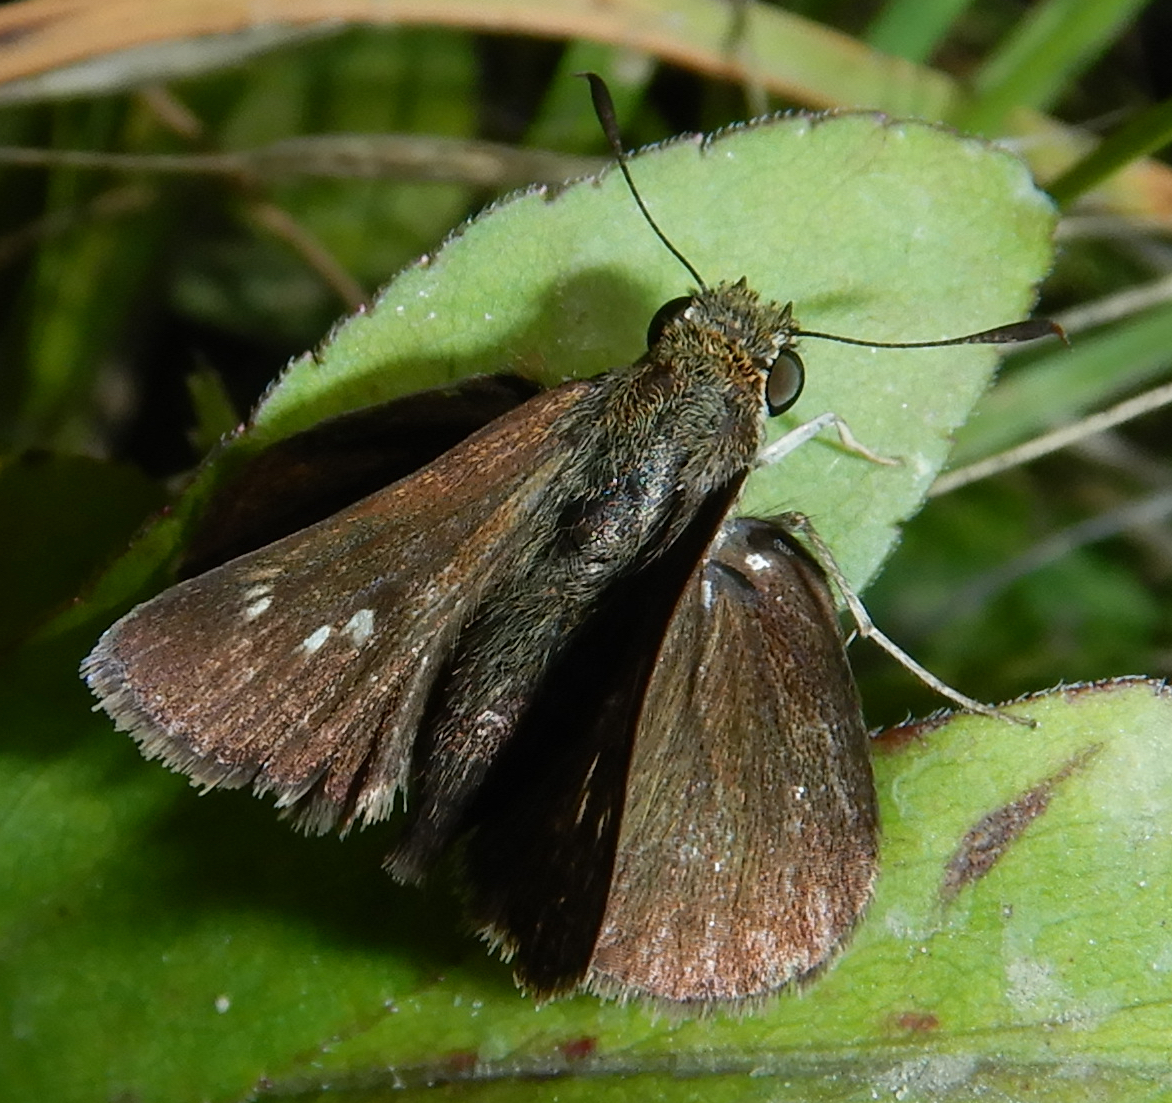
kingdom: Animalia
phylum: Arthropoda
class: Insecta
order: Lepidoptera
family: Hesperiidae
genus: Euphyes
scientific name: Euphyes vestris
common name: Dun skipper
